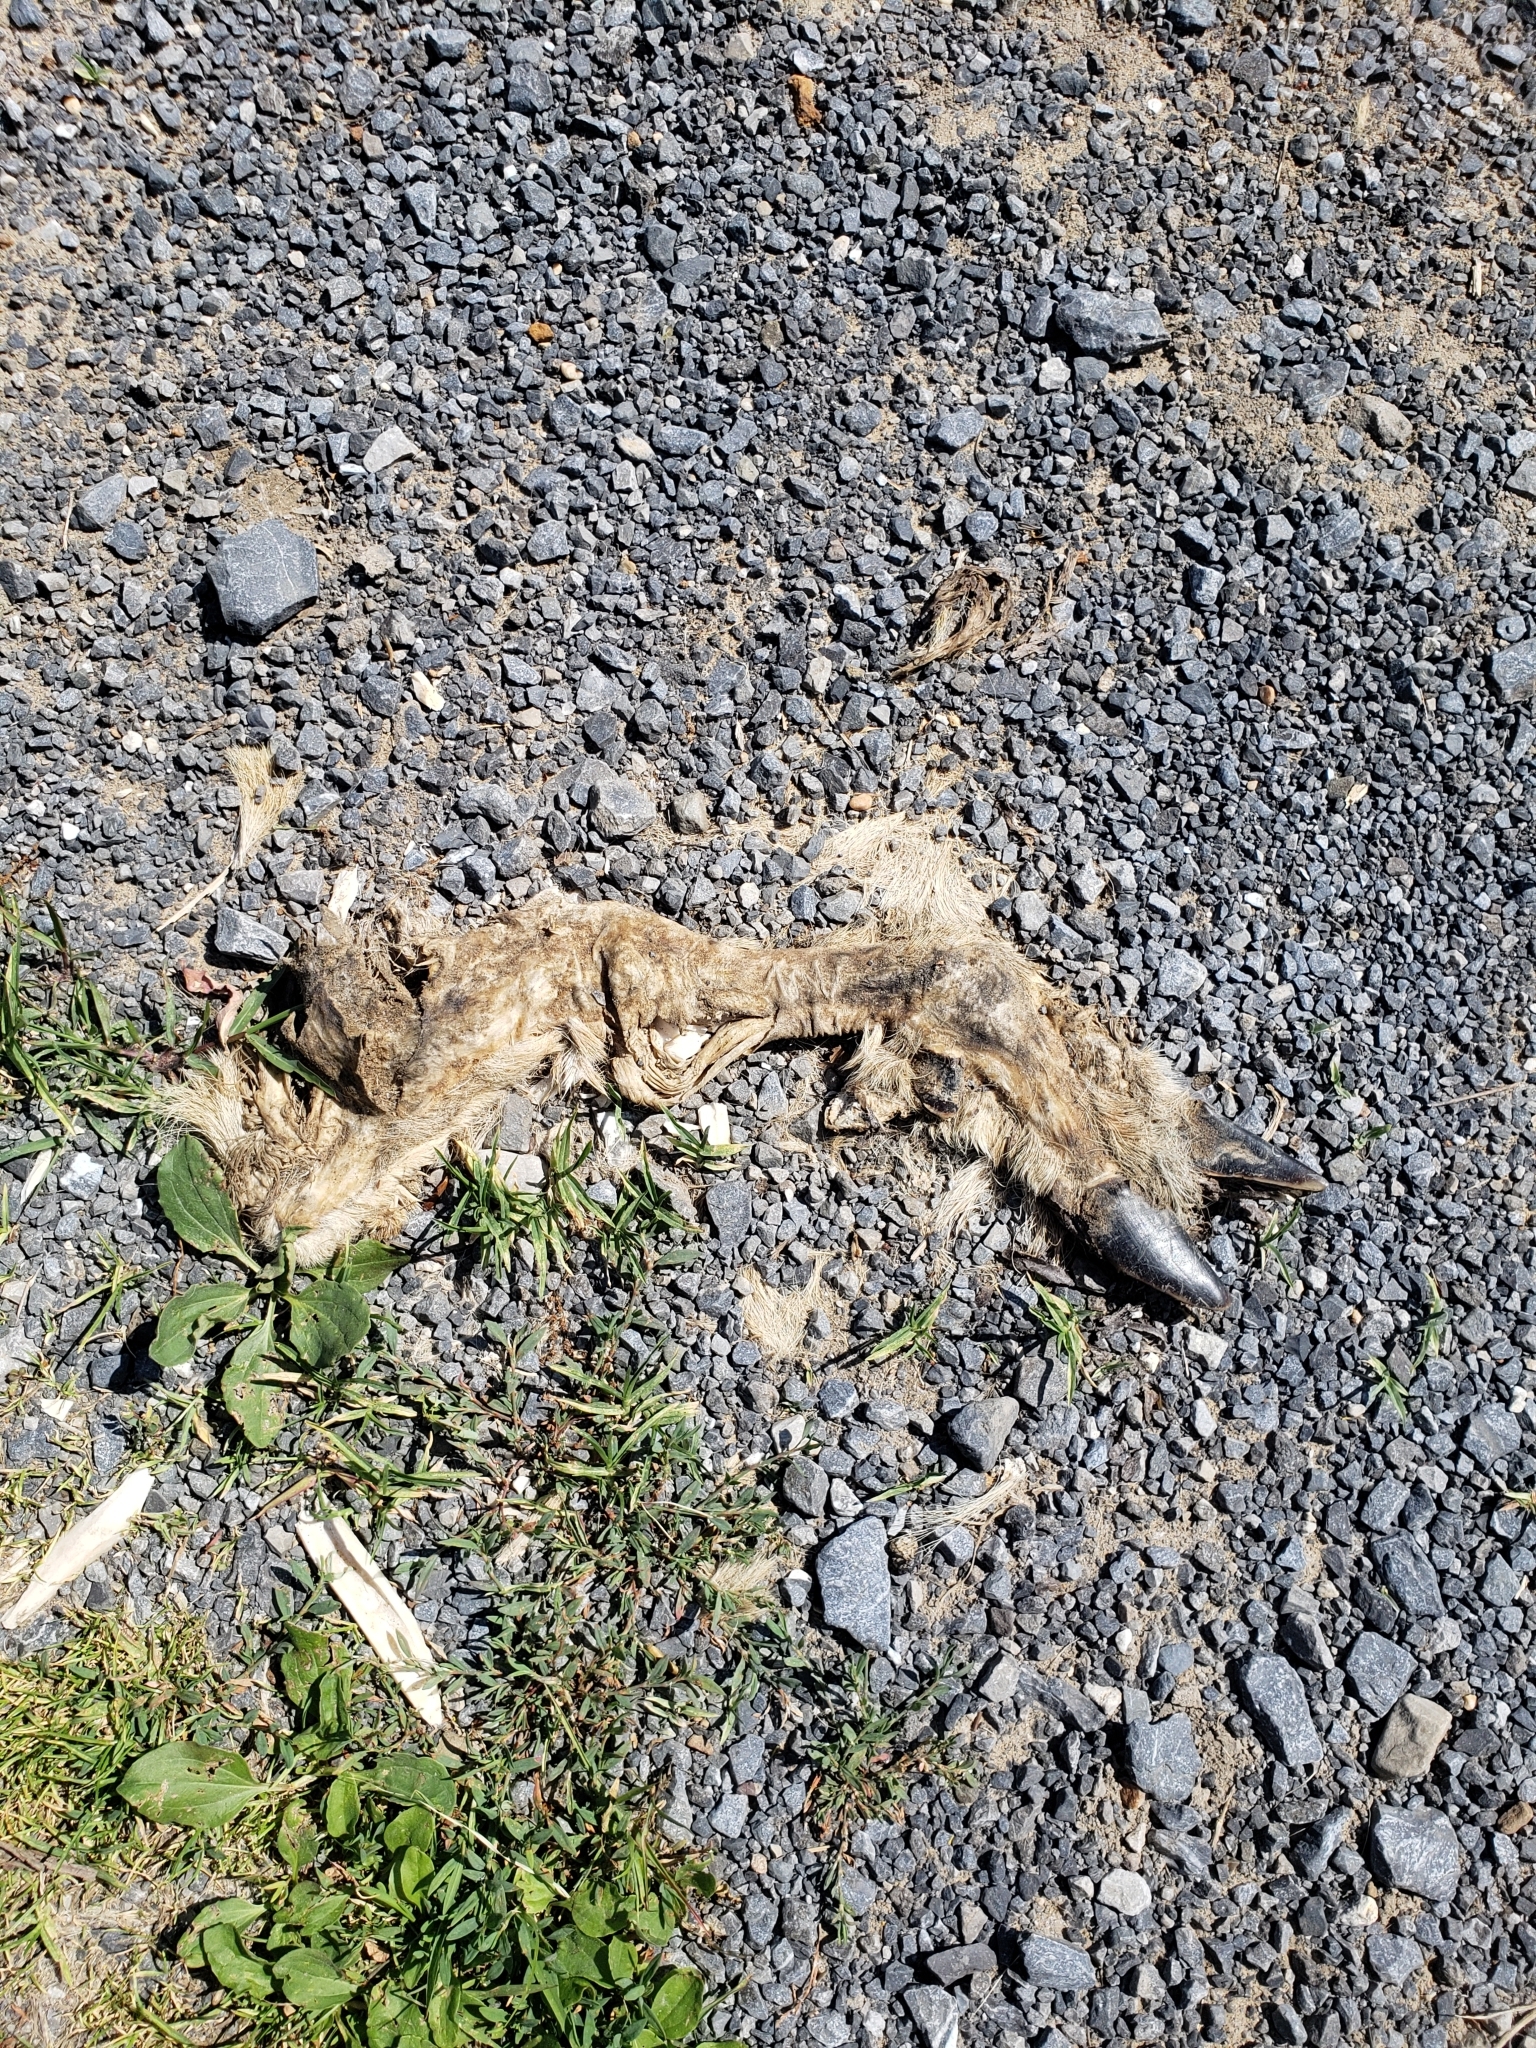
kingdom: Animalia
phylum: Chordata
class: Mammalia
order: Artiodactyla
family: Cervidae
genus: Odocoileus
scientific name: Odocoileus virginianus
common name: White-tailed deer
